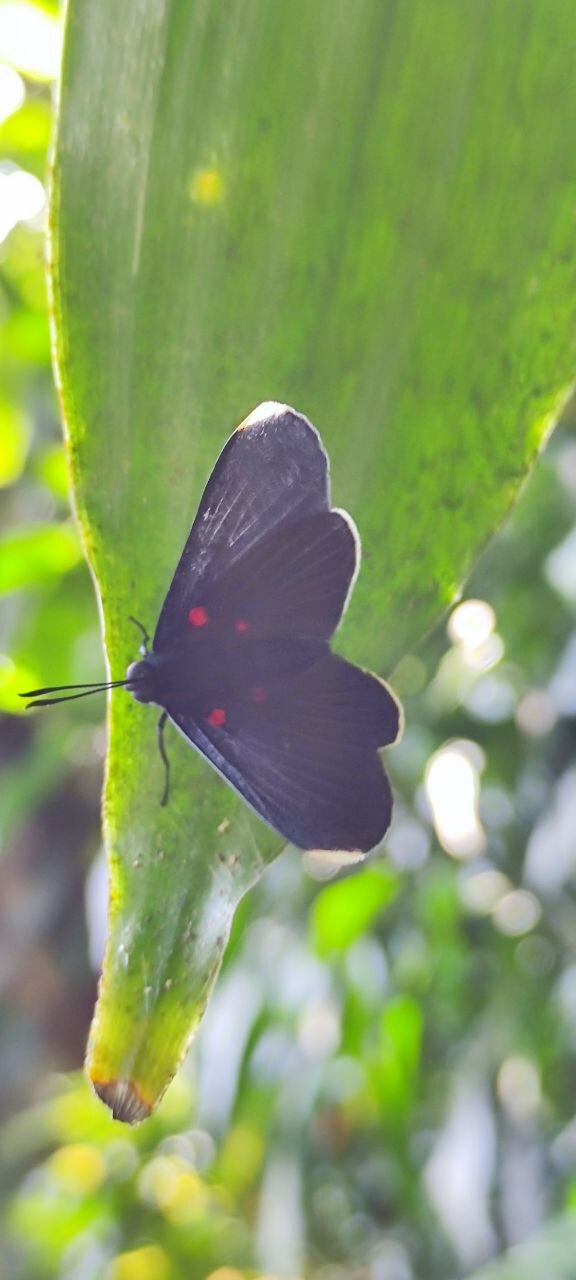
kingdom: Animalia
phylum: Arthropoda
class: Insecta
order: Lepidoptera
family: Lycaenidae
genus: Melanis
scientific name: Melanis
